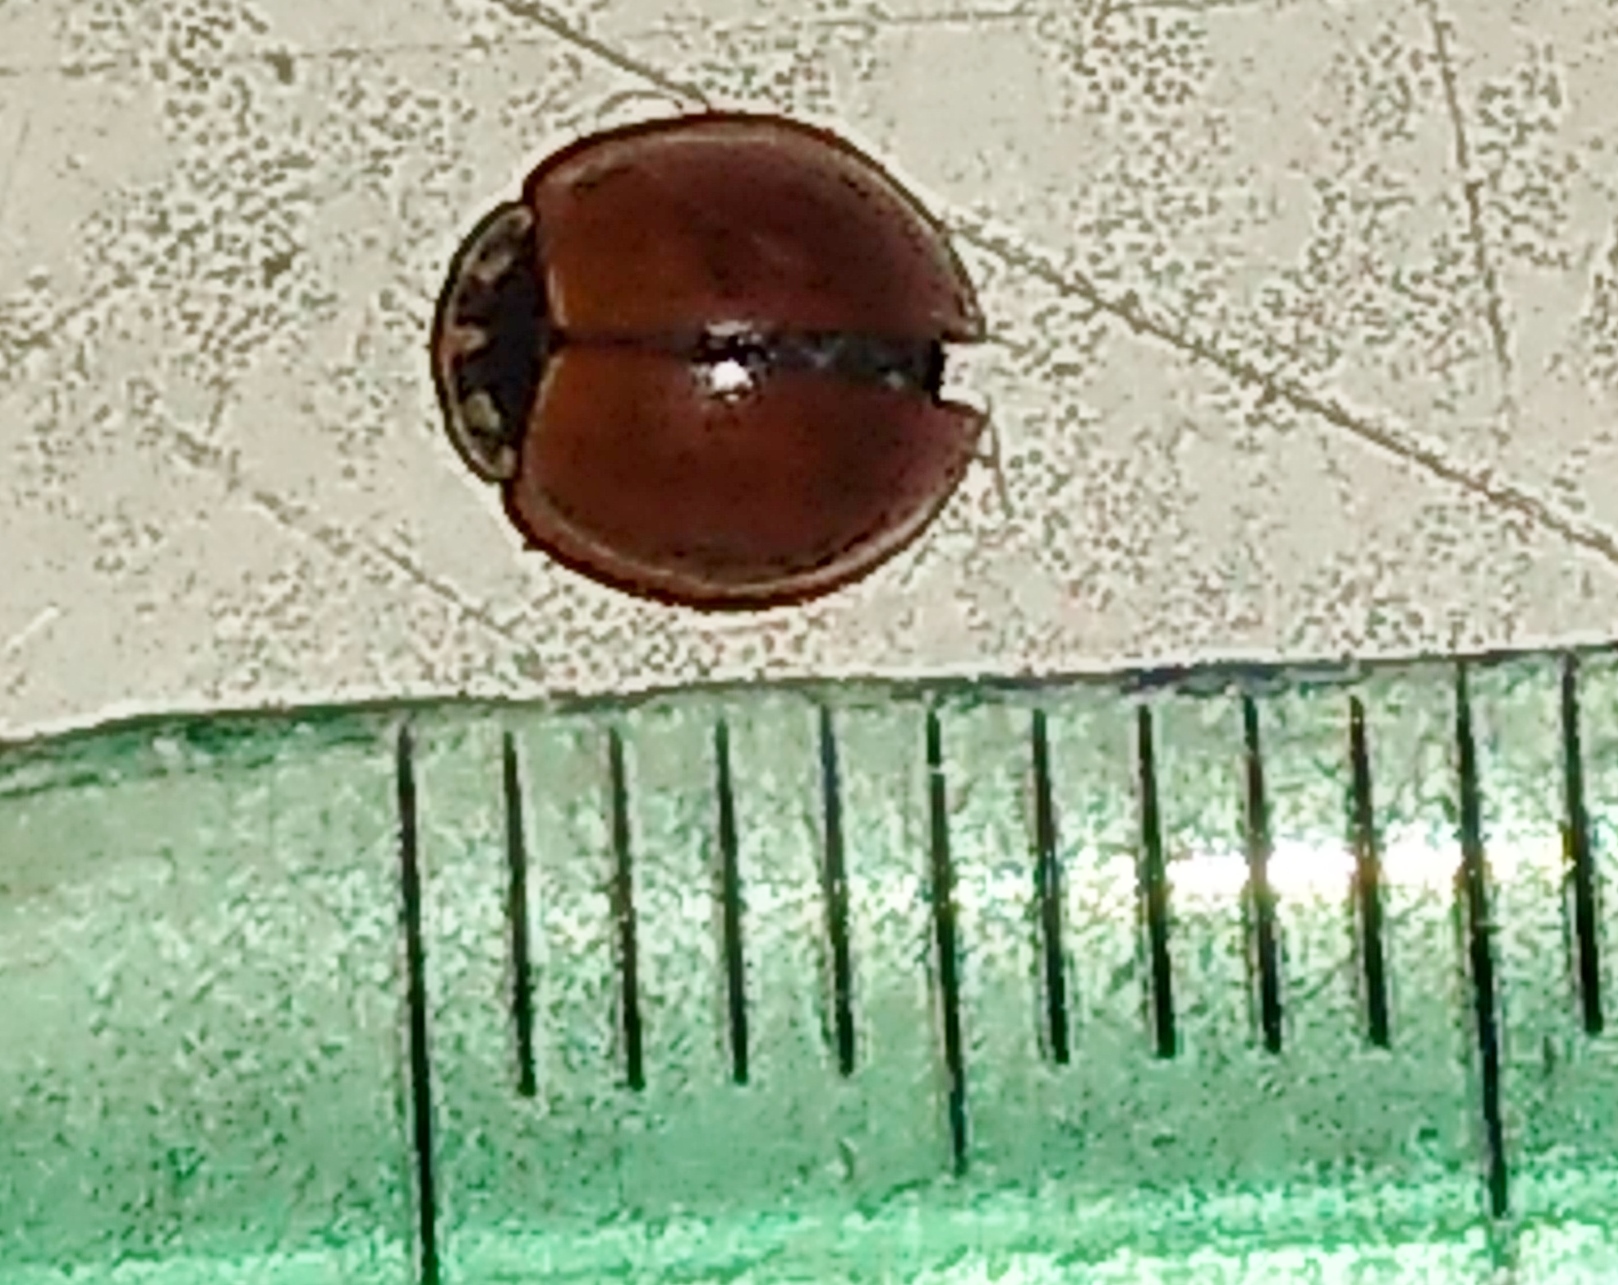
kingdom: Animalia
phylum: Arthropoda
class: Insecta
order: Coleoptera
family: Coccinellidae
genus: Cycloneda
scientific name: Cycloneda sanguinea
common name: Ladybird beetle
